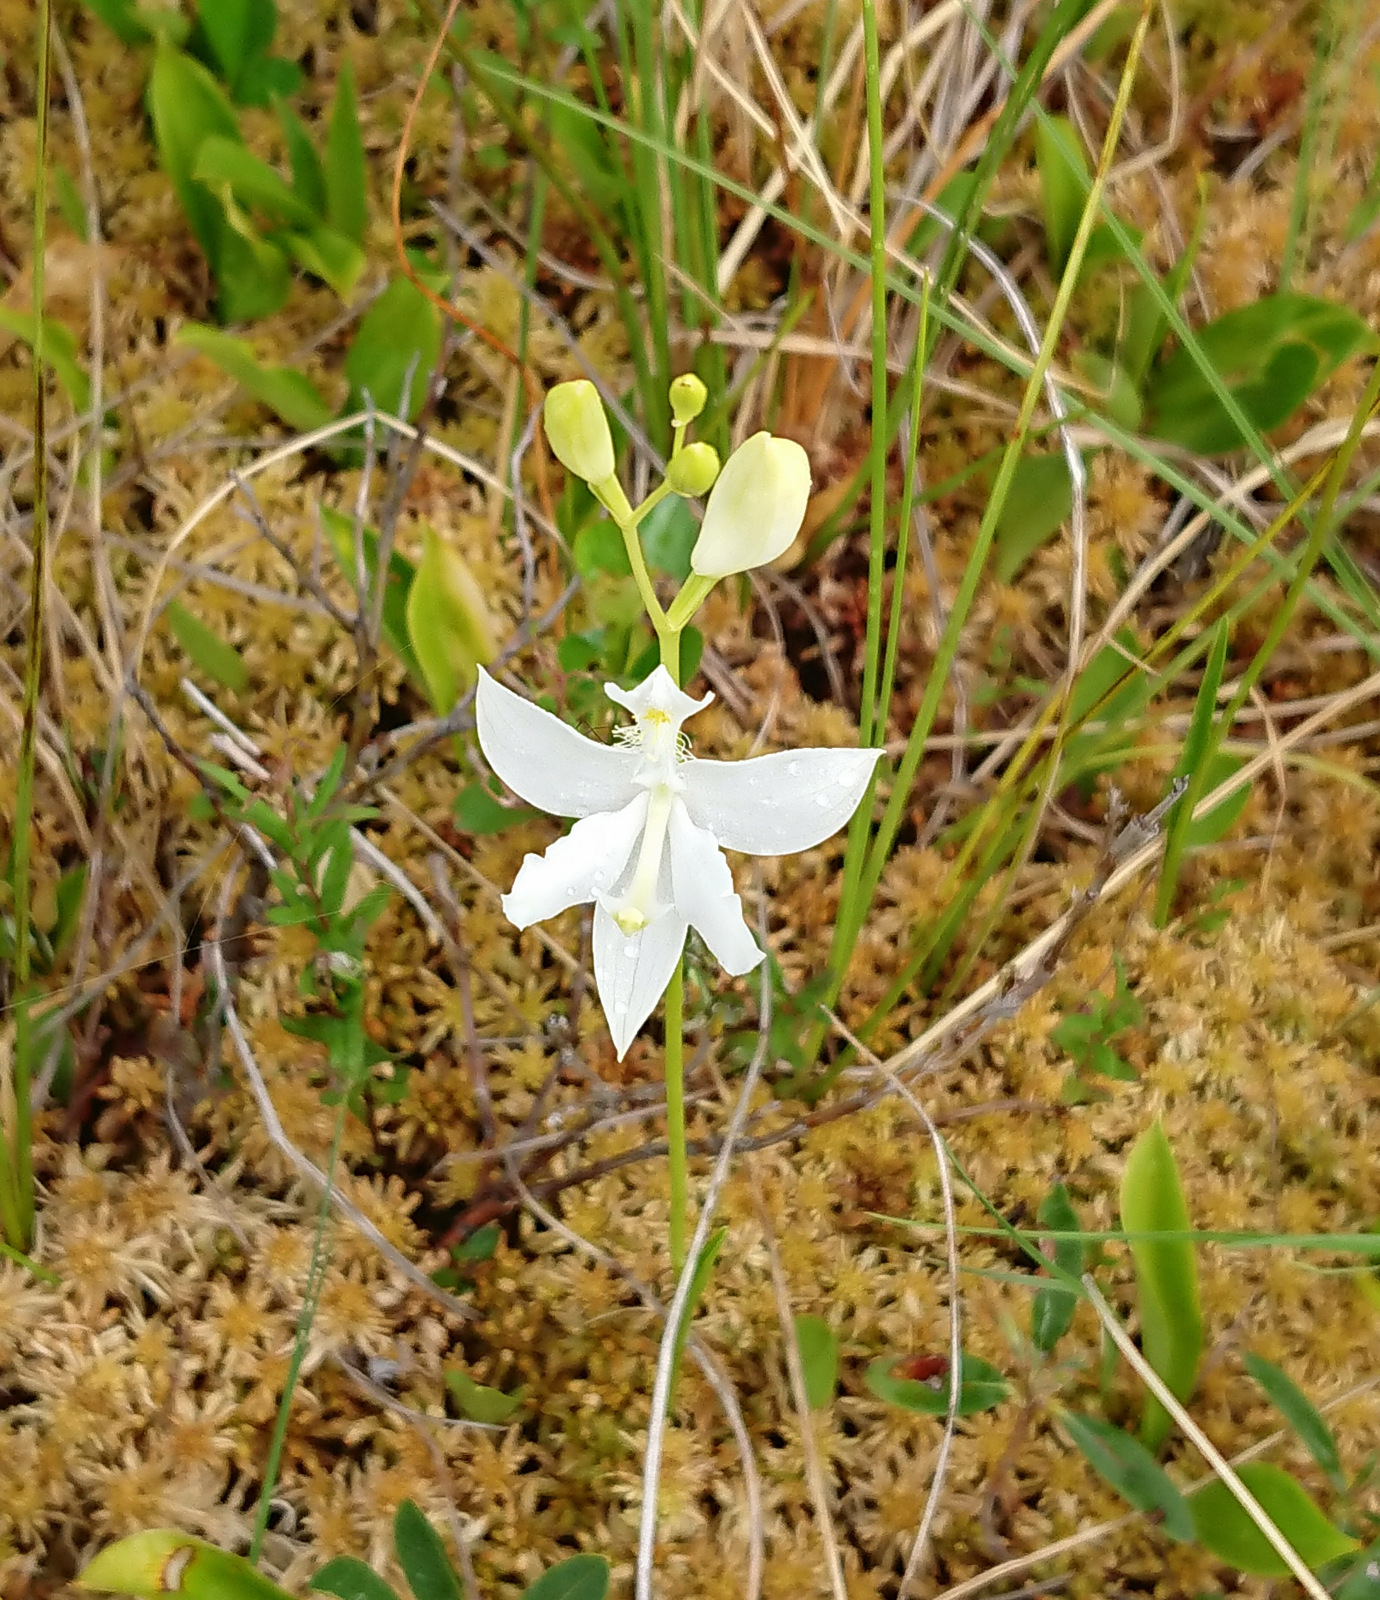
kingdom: Plantae
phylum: Tracheophyta
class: Liliopsida
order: Asparagales
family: Orchidaceae
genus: Calopogon
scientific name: Calopogon tuberosus
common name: Grass-pink
